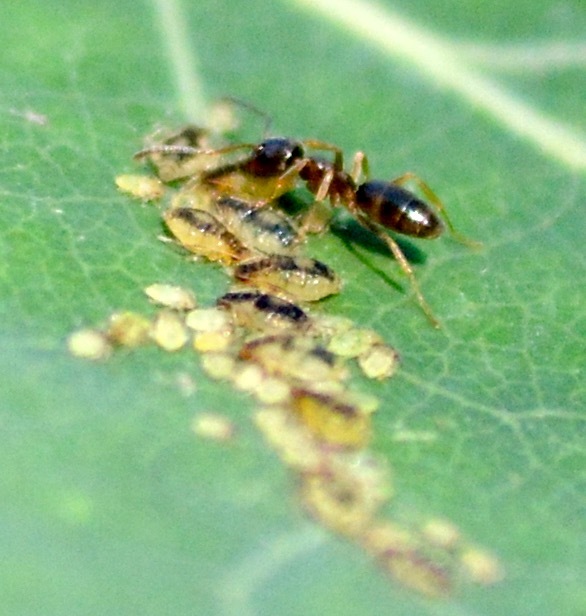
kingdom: Animalia
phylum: Arthropoda
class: Insecta
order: Hymenoptera
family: Formicidae
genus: Tapinoma
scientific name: Tapinoma sessile
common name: Odorous house ant
